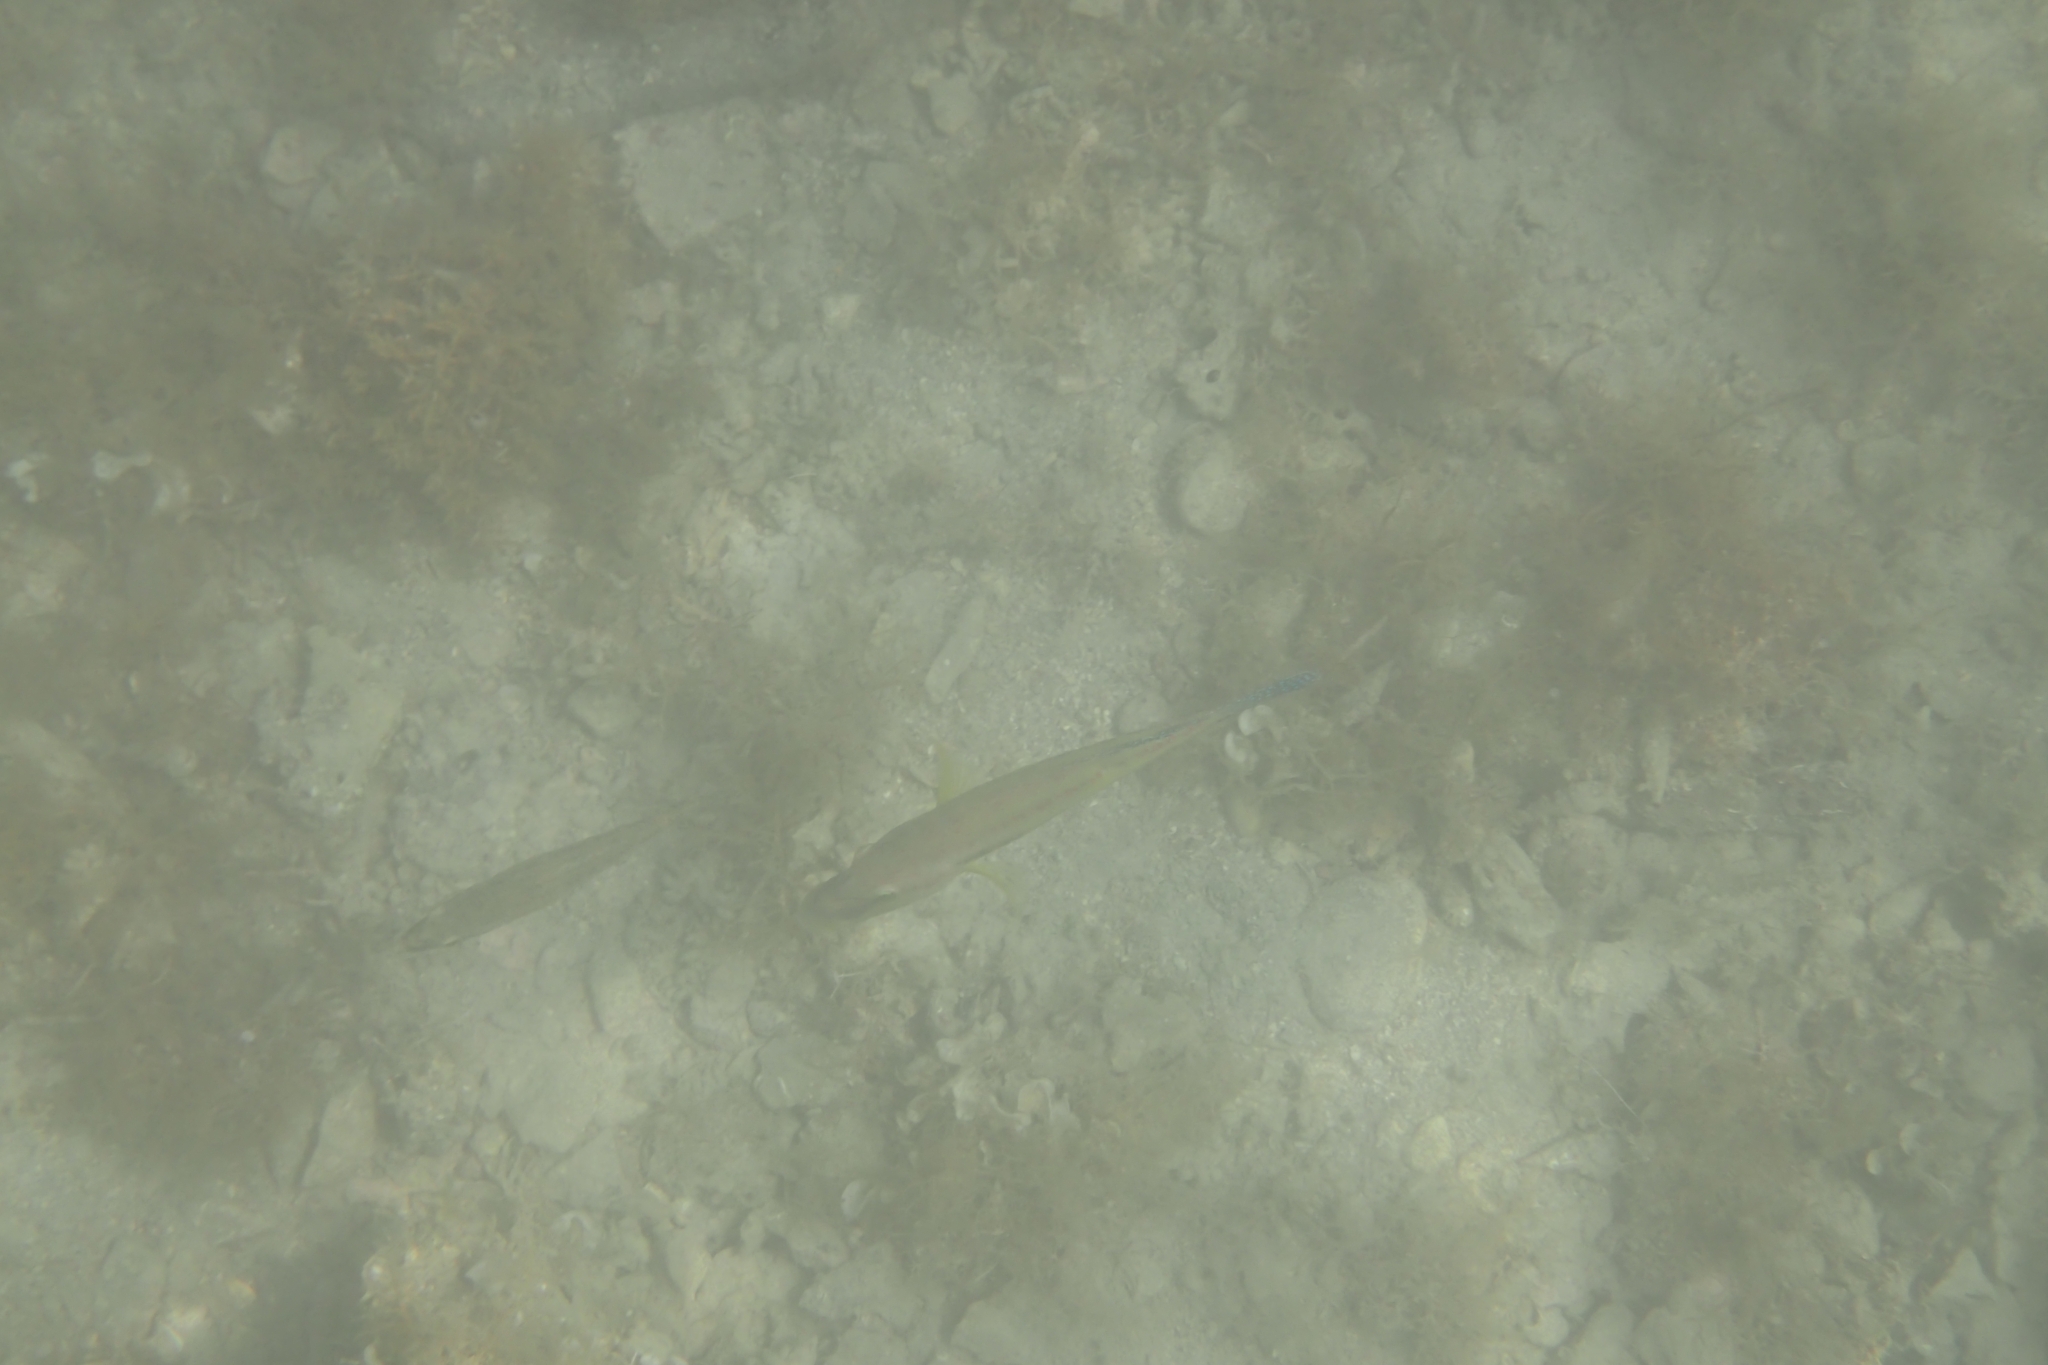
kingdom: Animalia
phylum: Chordata
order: Perciformes
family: Labridae
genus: Symphodus
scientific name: Symphodus tinca
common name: Peacock wrasse
